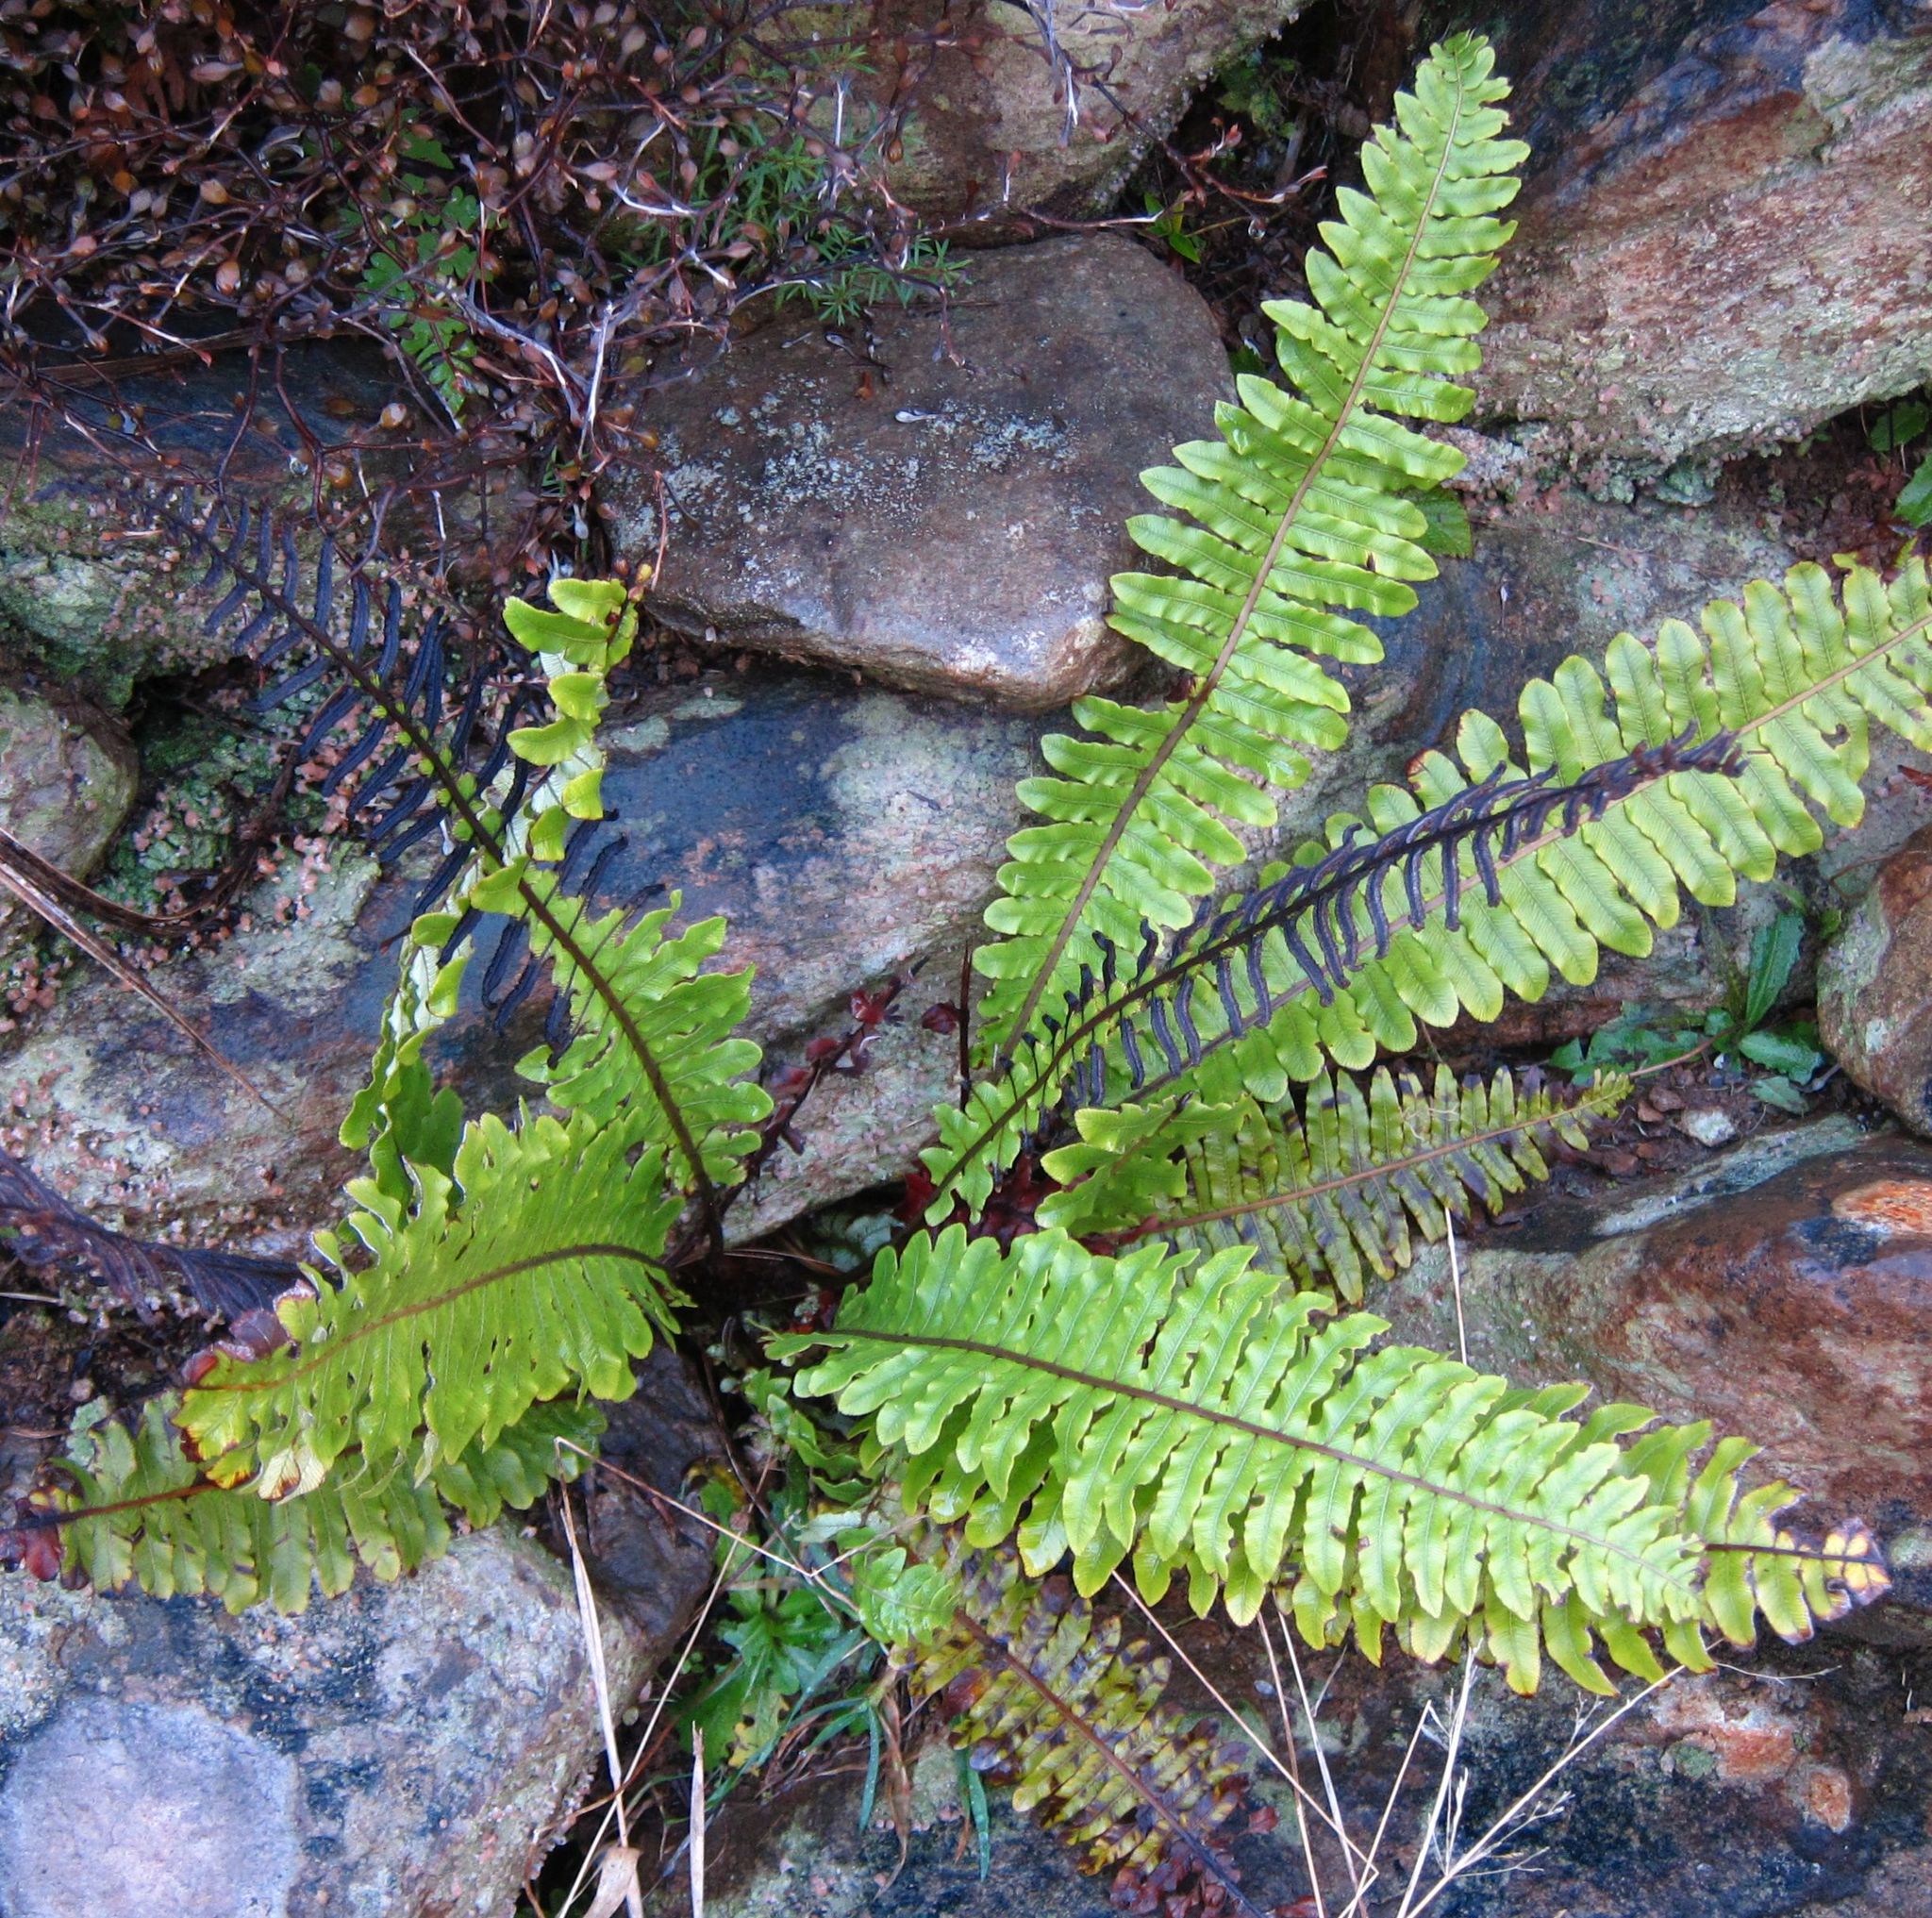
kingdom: Plantae
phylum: Tracheophyta
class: Polypodiopsida
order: Polypodiales
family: Blechnaceae
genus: Lomaria
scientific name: Lomaria discolor
